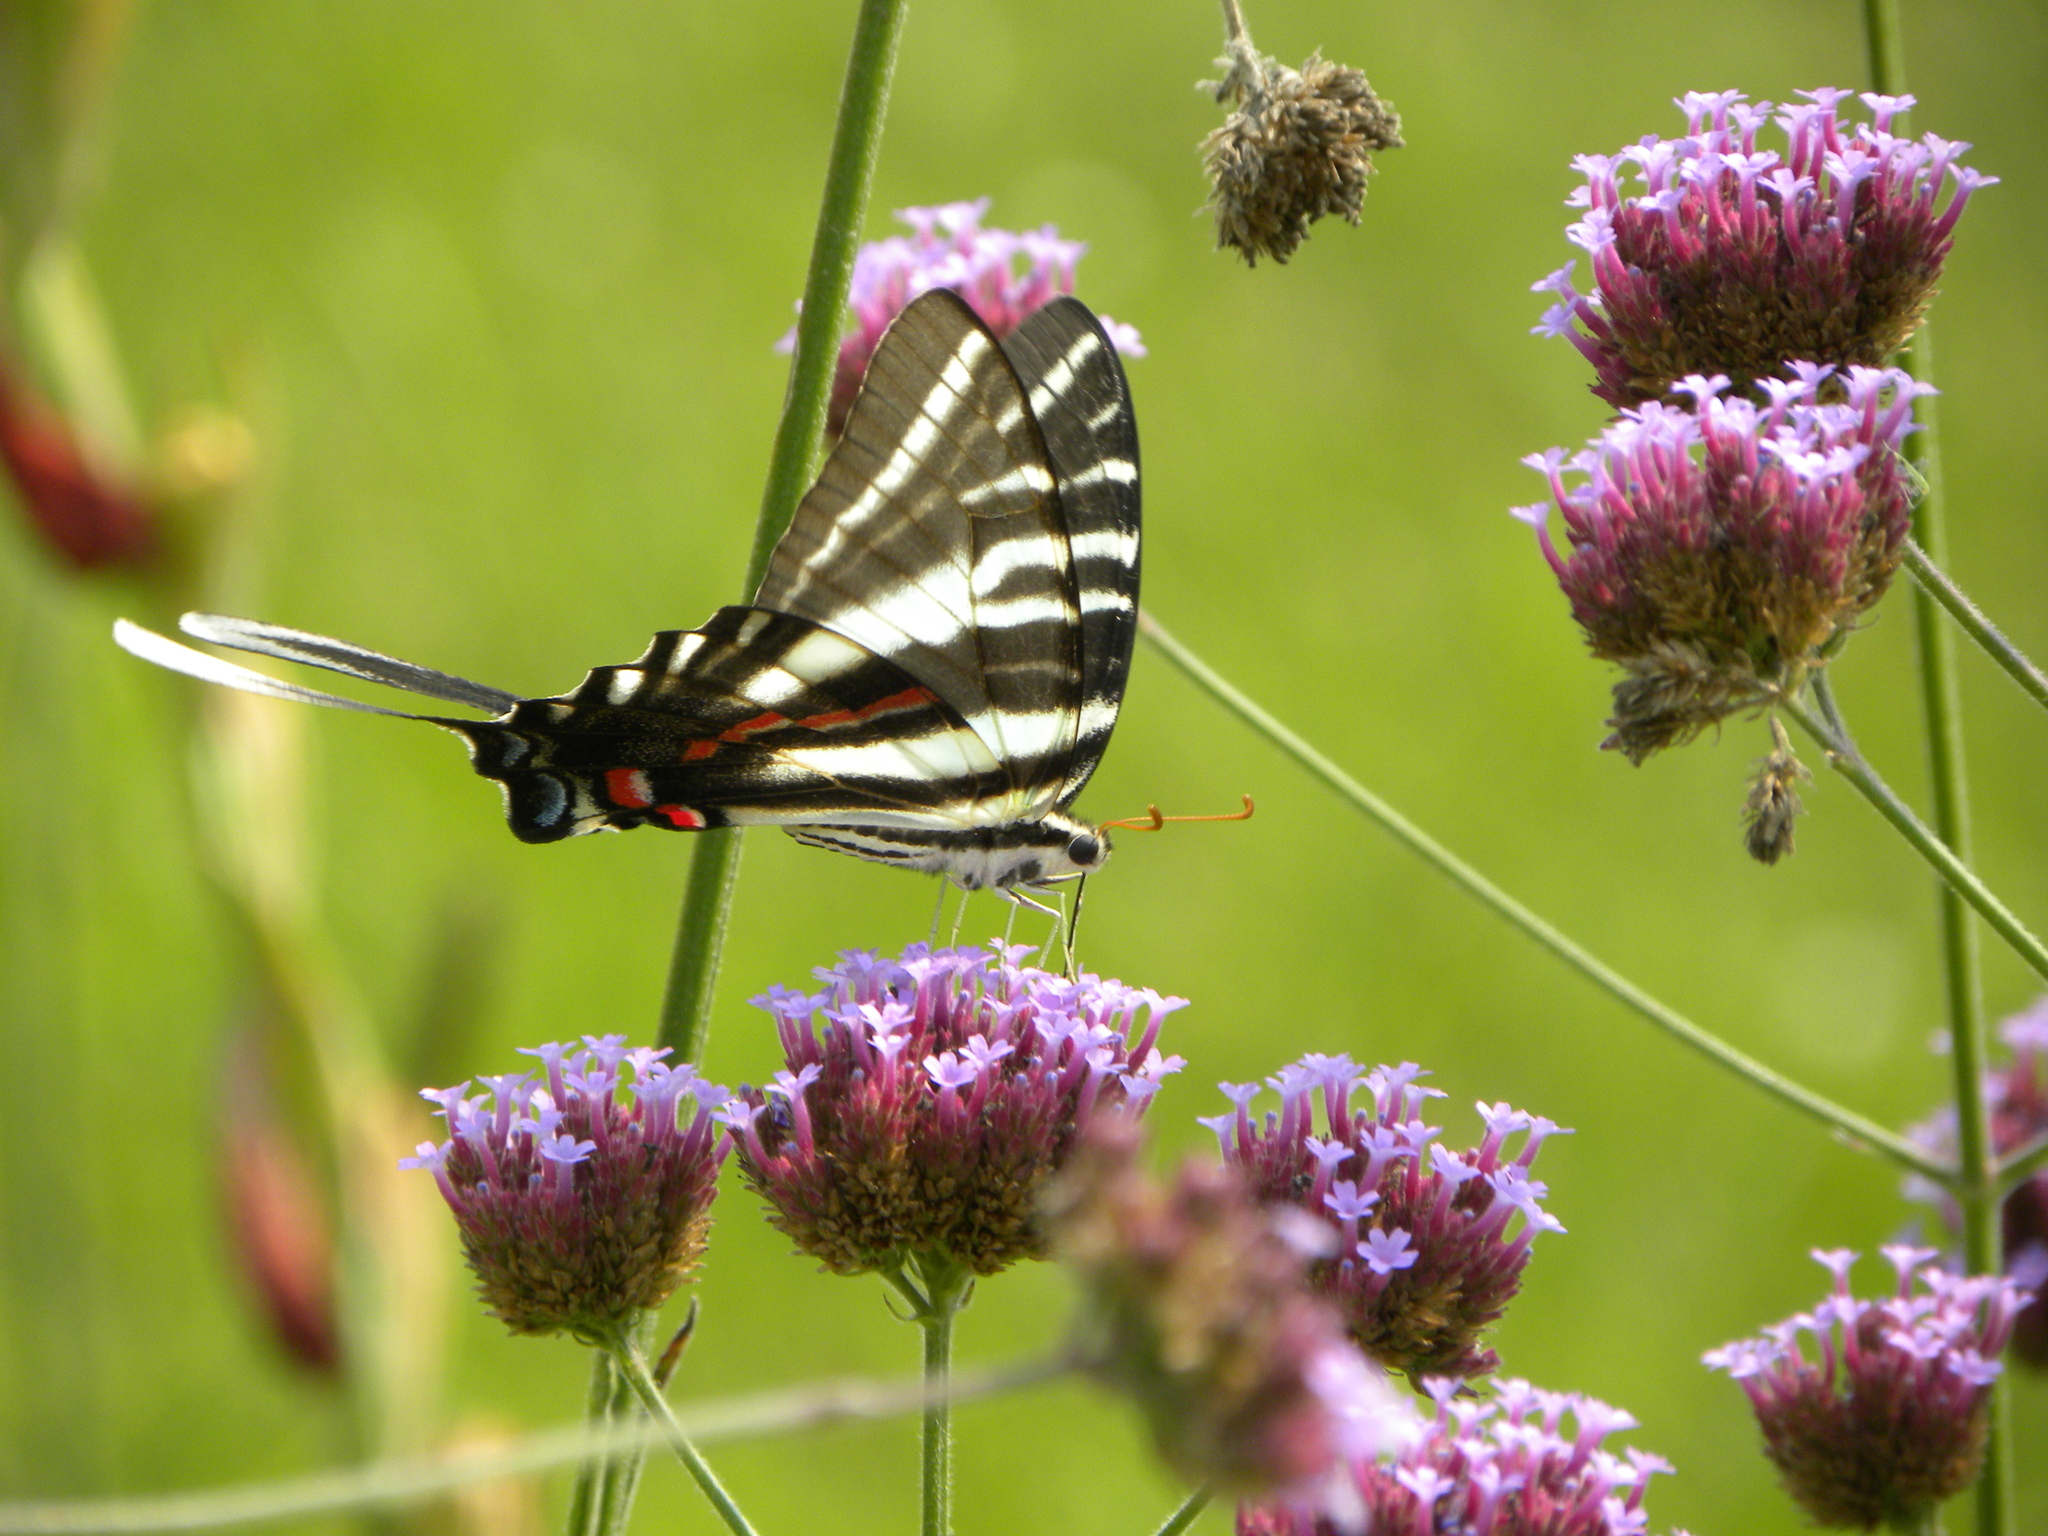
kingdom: Animalia
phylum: Arthropoda
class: Insecta
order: Lepidoptera
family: Papilionidae
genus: Protographium
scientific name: Protographium marcellus
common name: Zebra swallowtail
